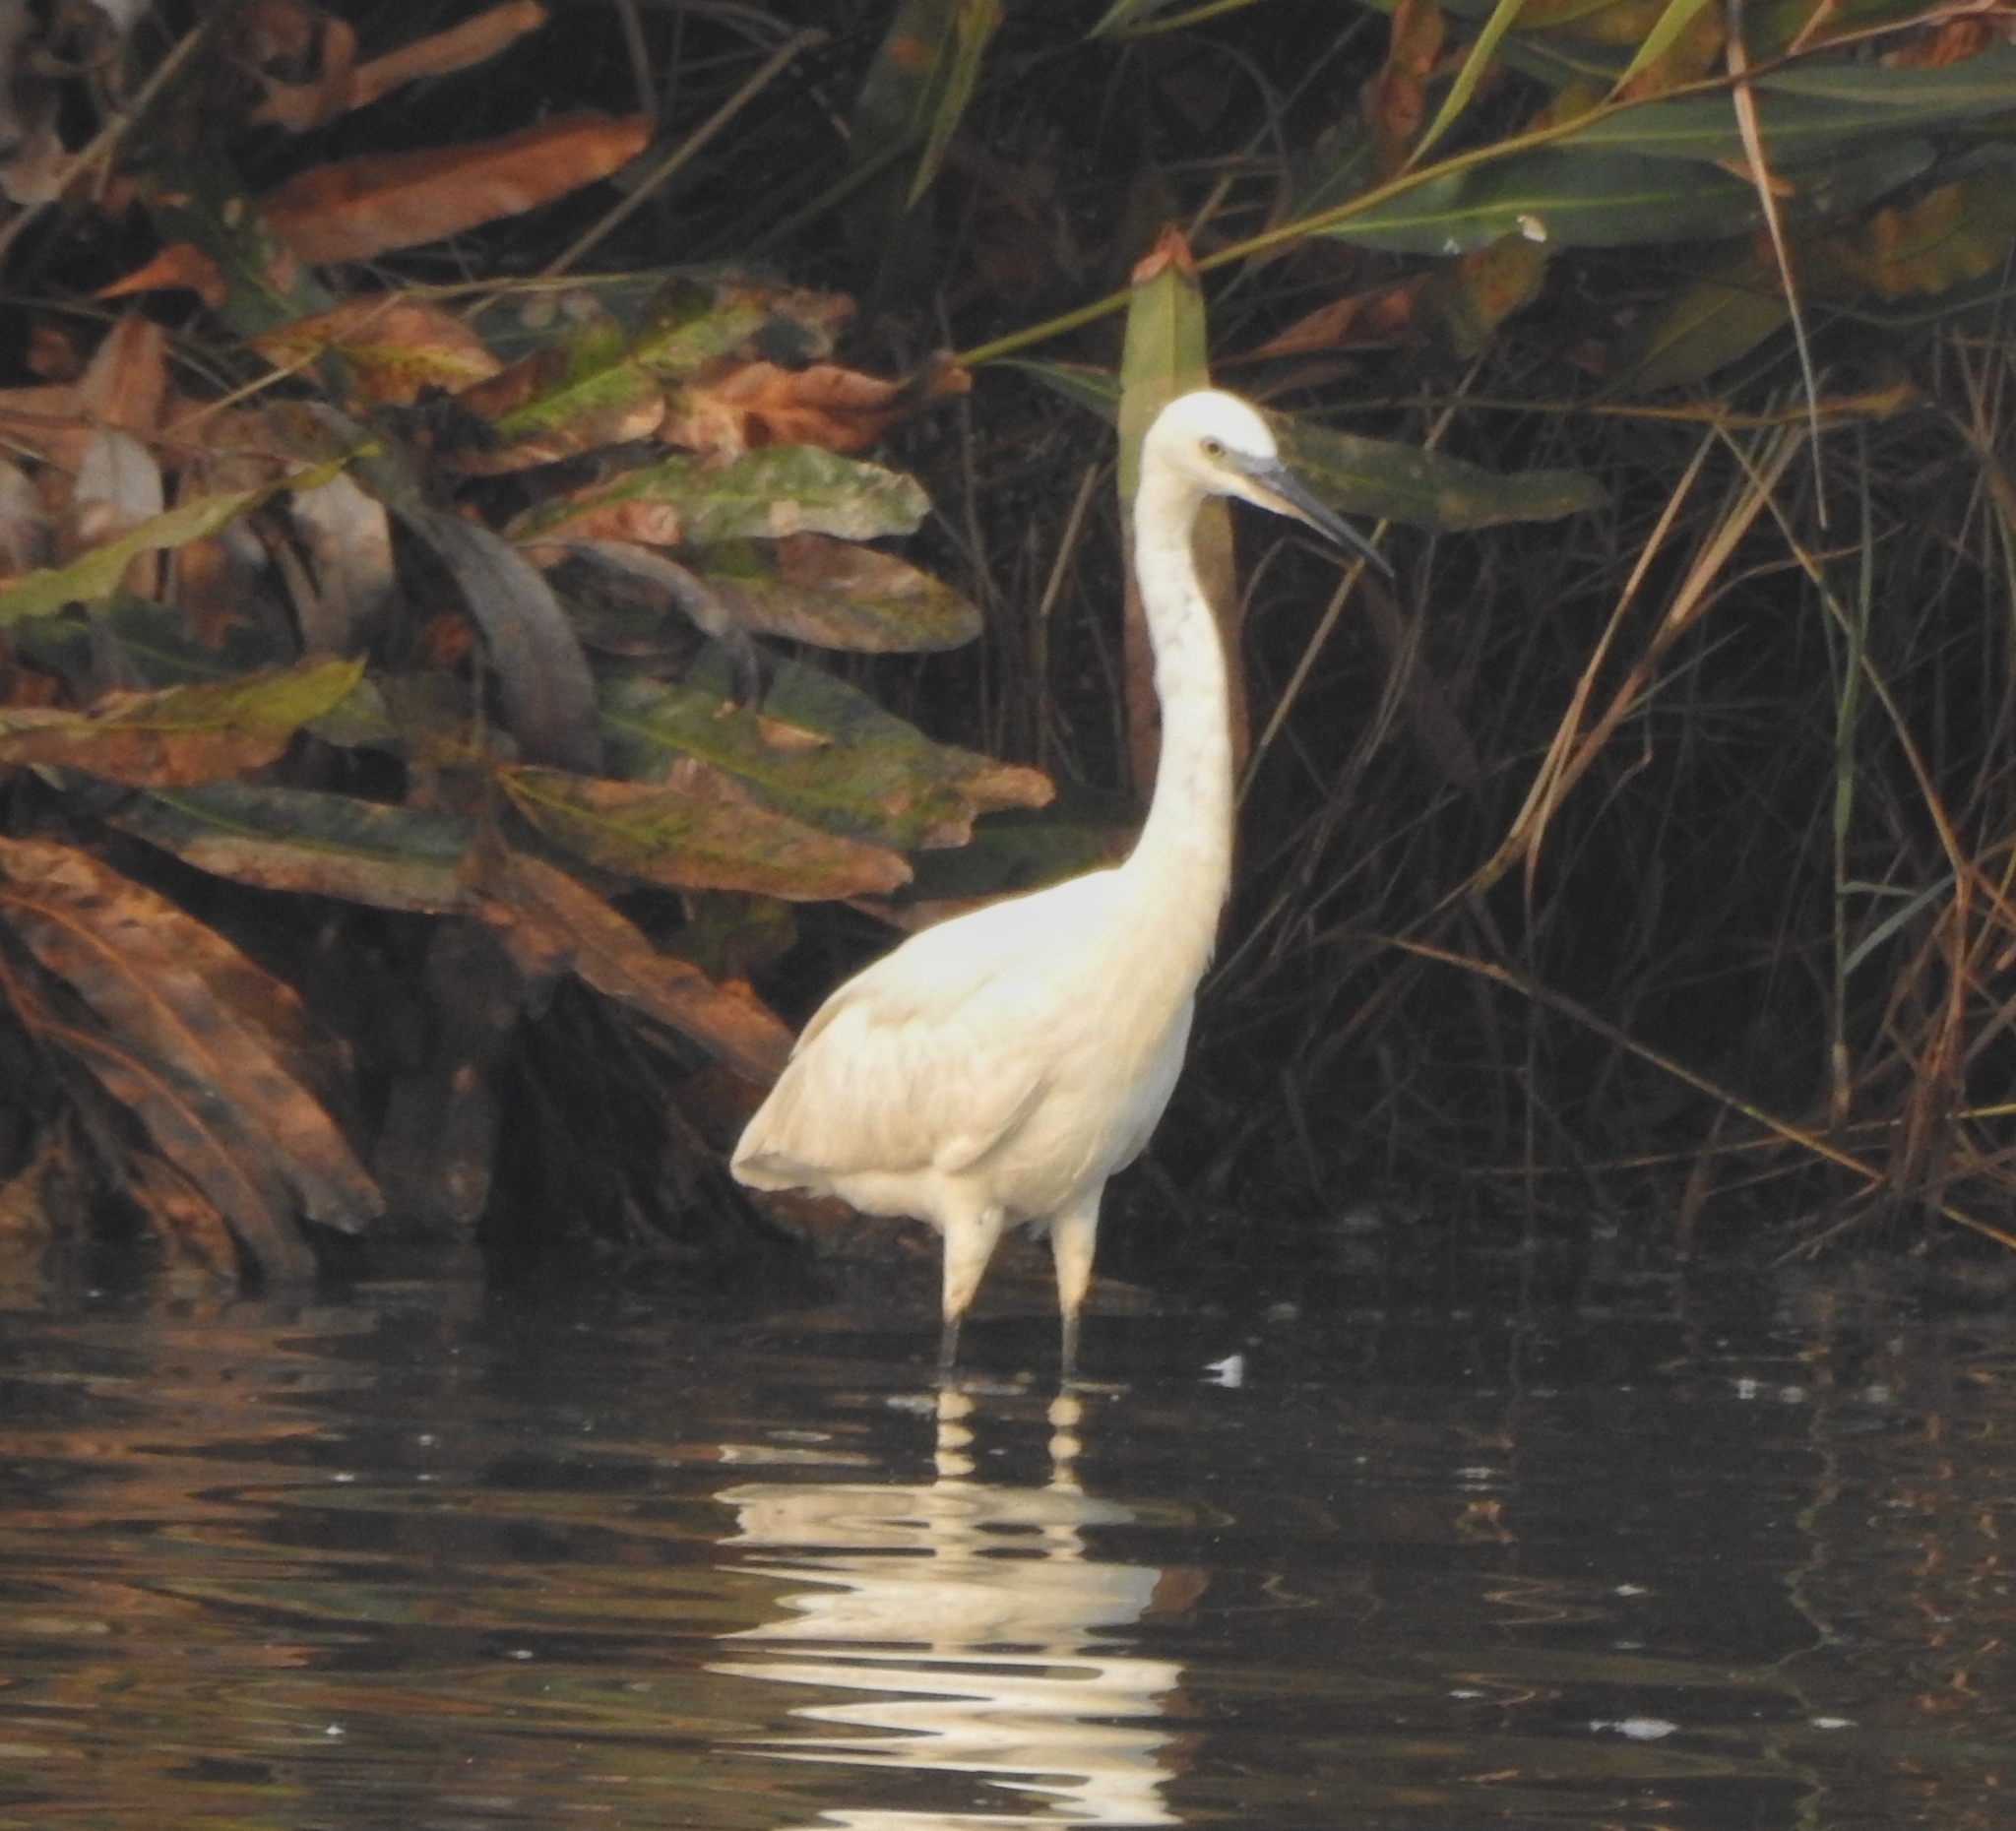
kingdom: Animalia
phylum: Chordata
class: Aves
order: Pelecaniformes
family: Ardeidae
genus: Egretta
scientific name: Egretta garzetta
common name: Little egret
